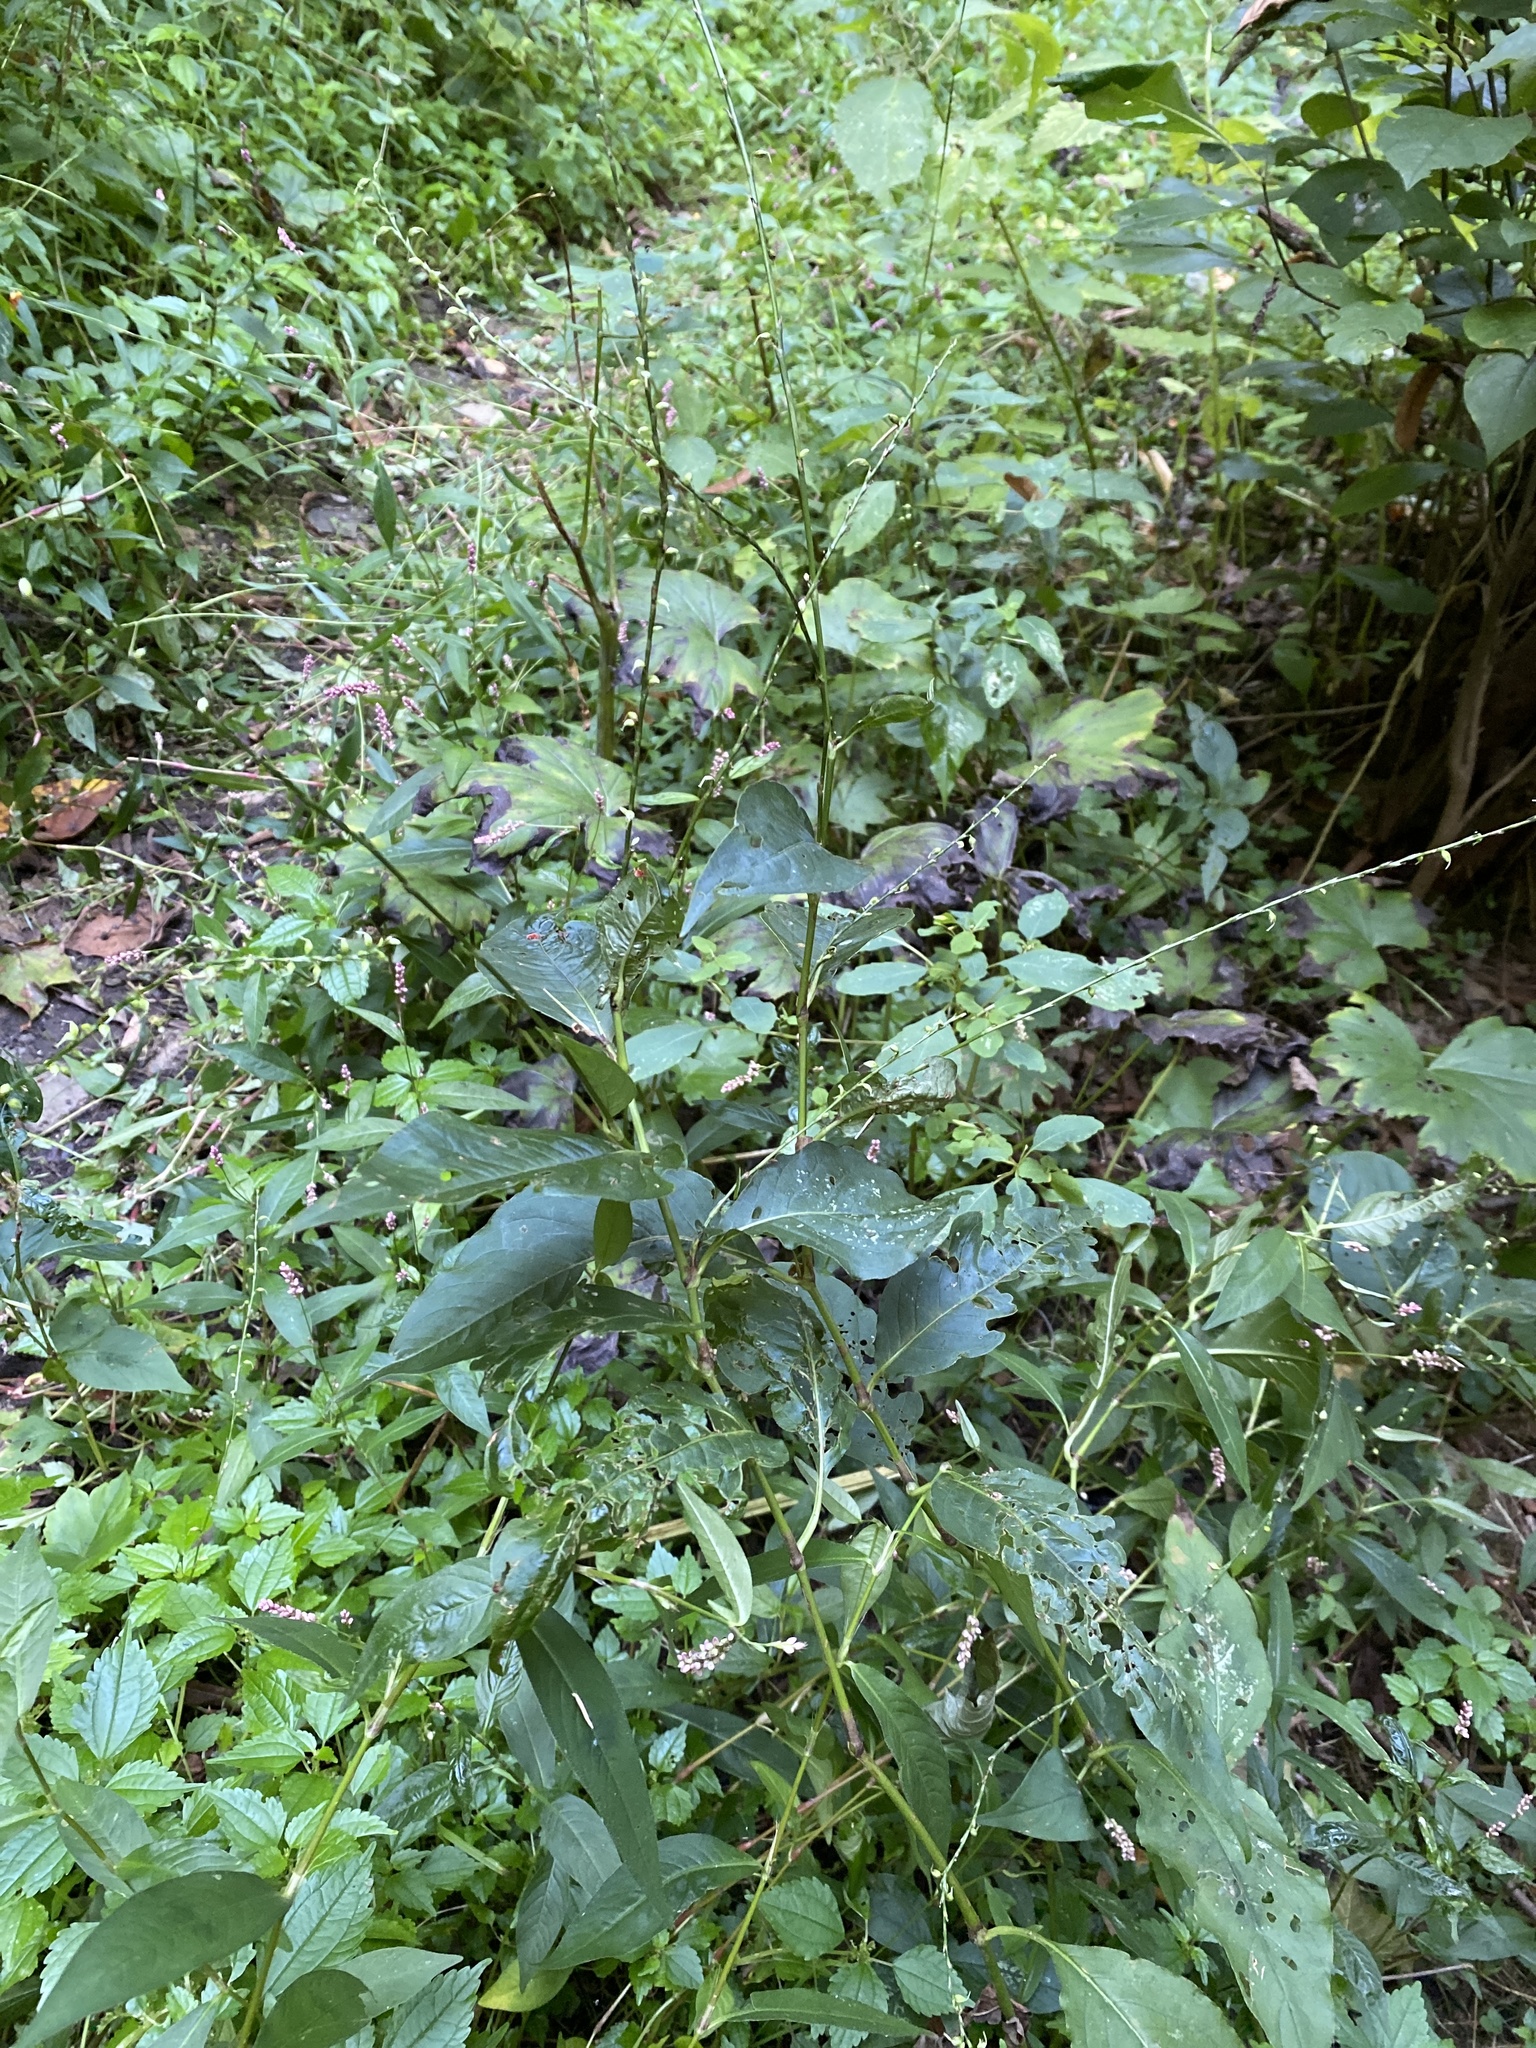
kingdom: Plantae
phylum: Tracheophyta
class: Magnoliopsida
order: Caryophyllales
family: Polygonaceae
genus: Persicaria
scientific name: Persicaria virginiana
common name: Jumpseed
